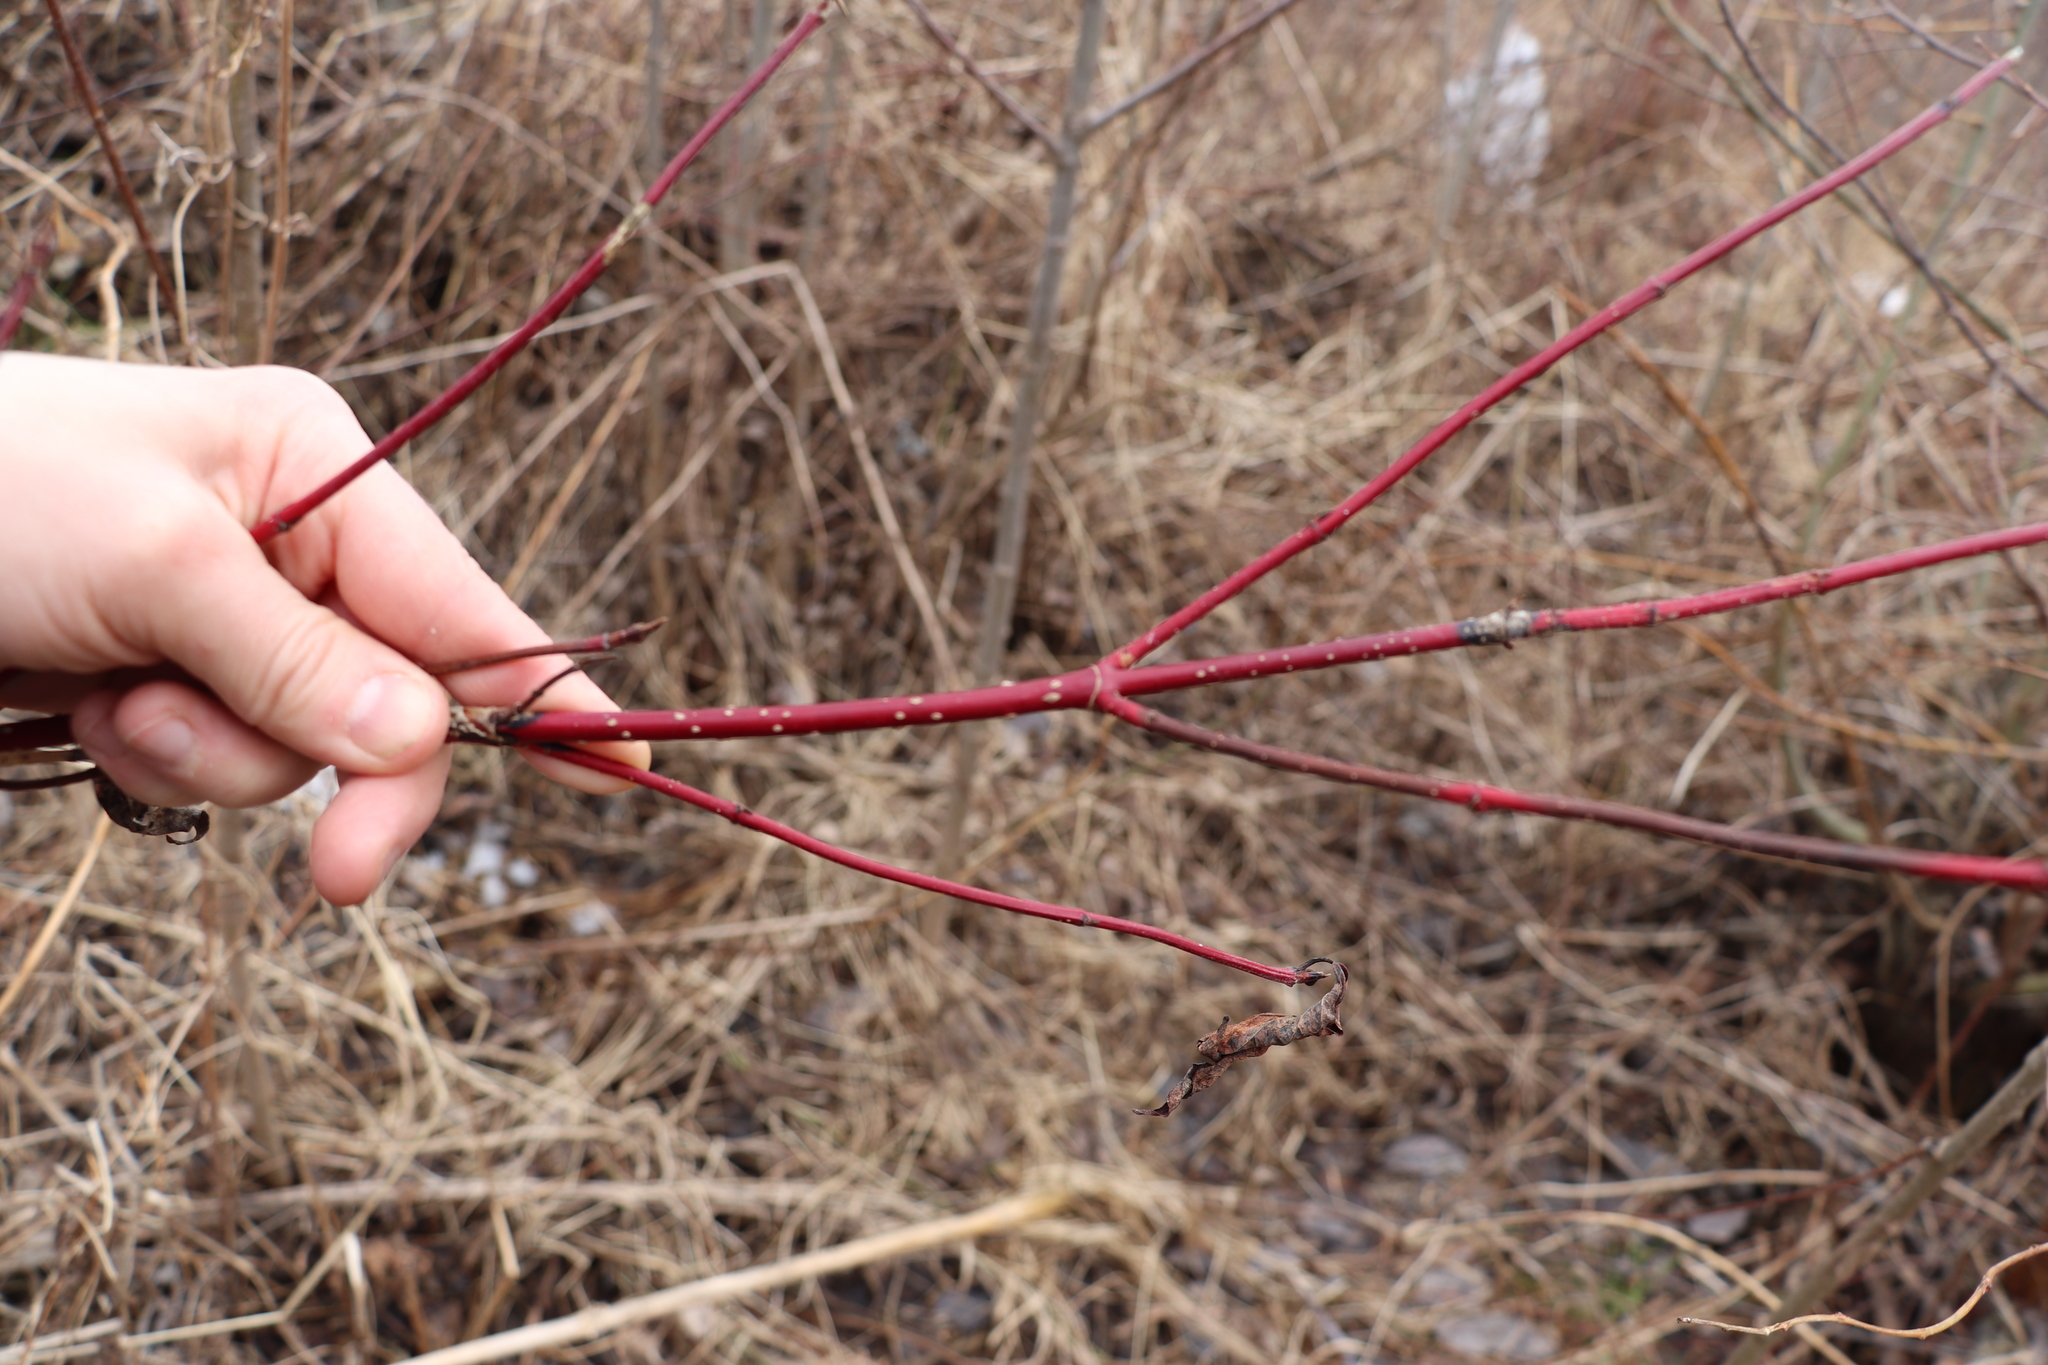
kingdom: Plantae
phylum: Tracheophyta
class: Magnoliopsida
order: Cornales
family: Cornaceae
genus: Cornus
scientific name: Cornus alba
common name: White dogwood
